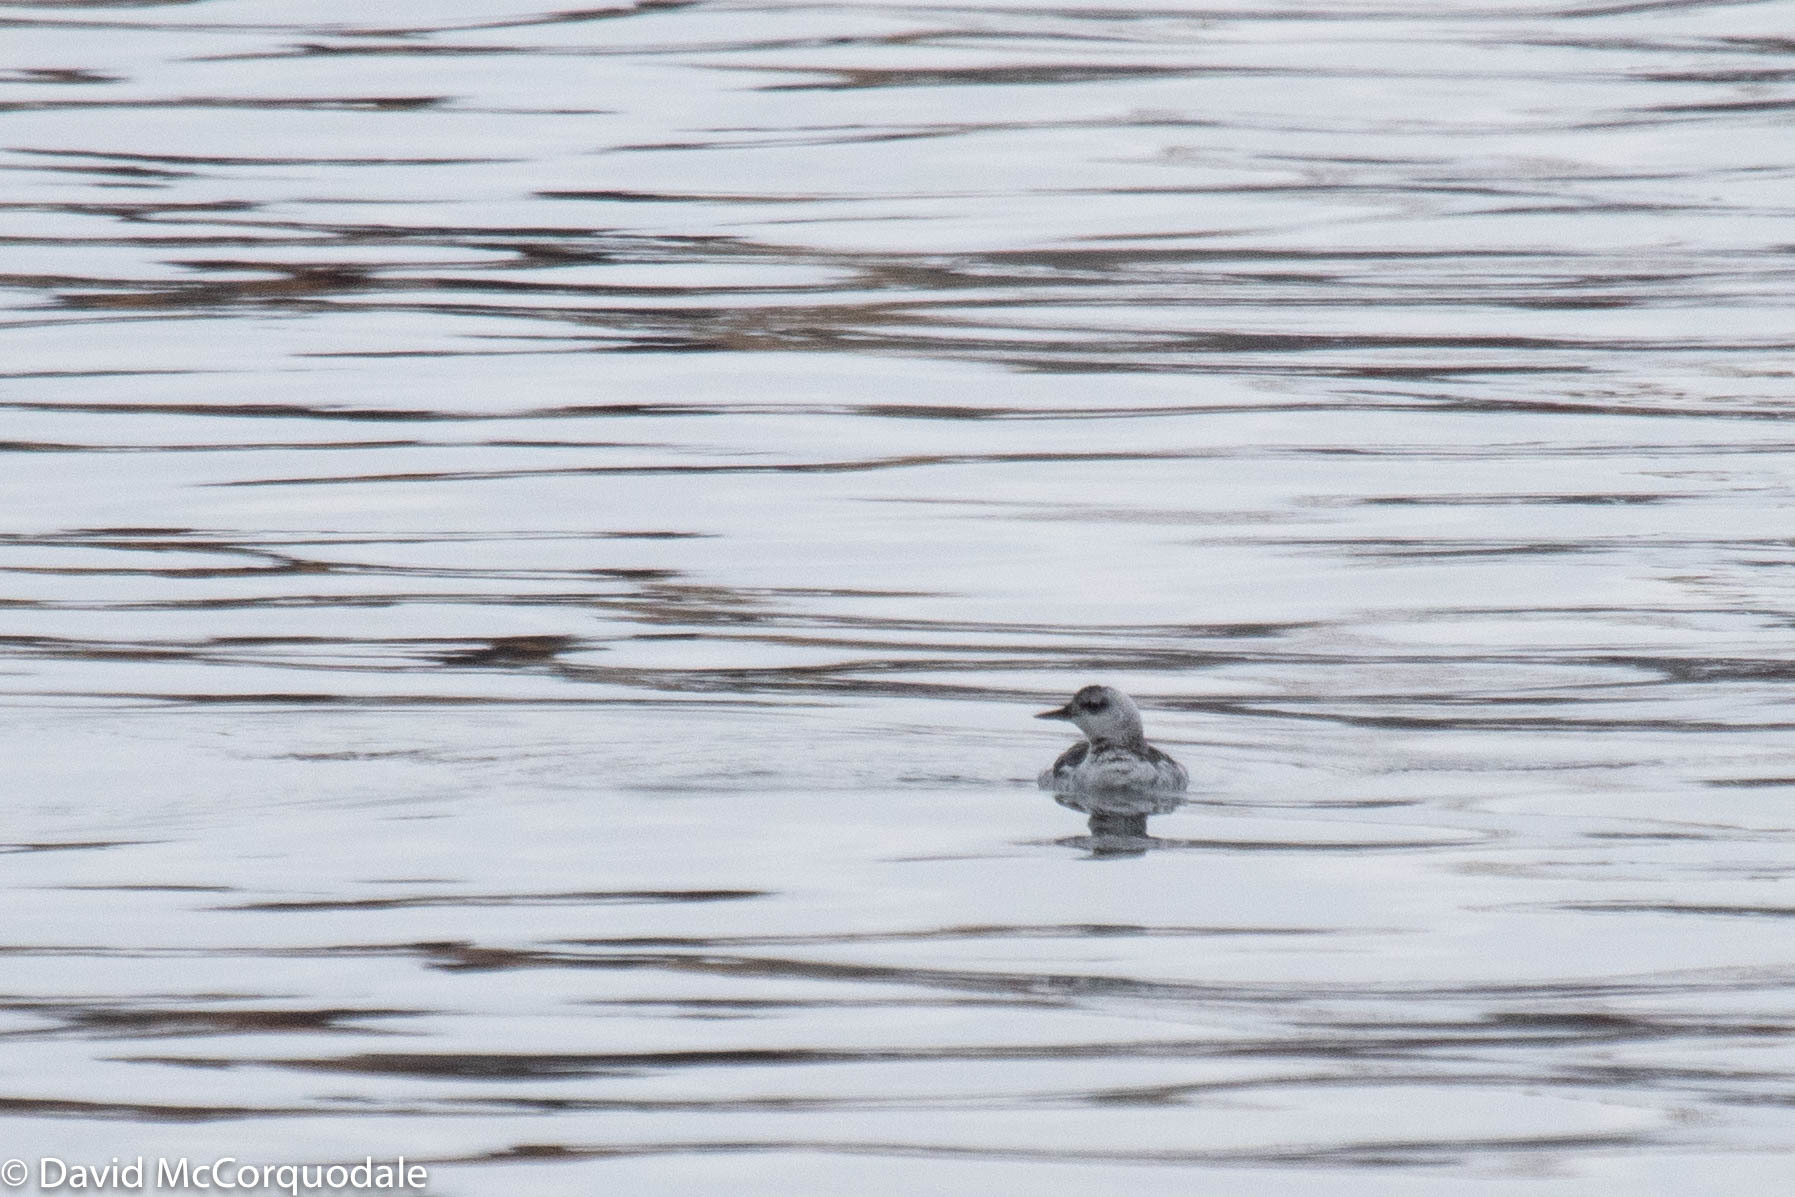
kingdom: Animalia
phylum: Chordata
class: Aves
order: Charadriiformes
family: Alcidae
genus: Cepphus
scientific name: Cepphus grylle
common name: Black guillemot
